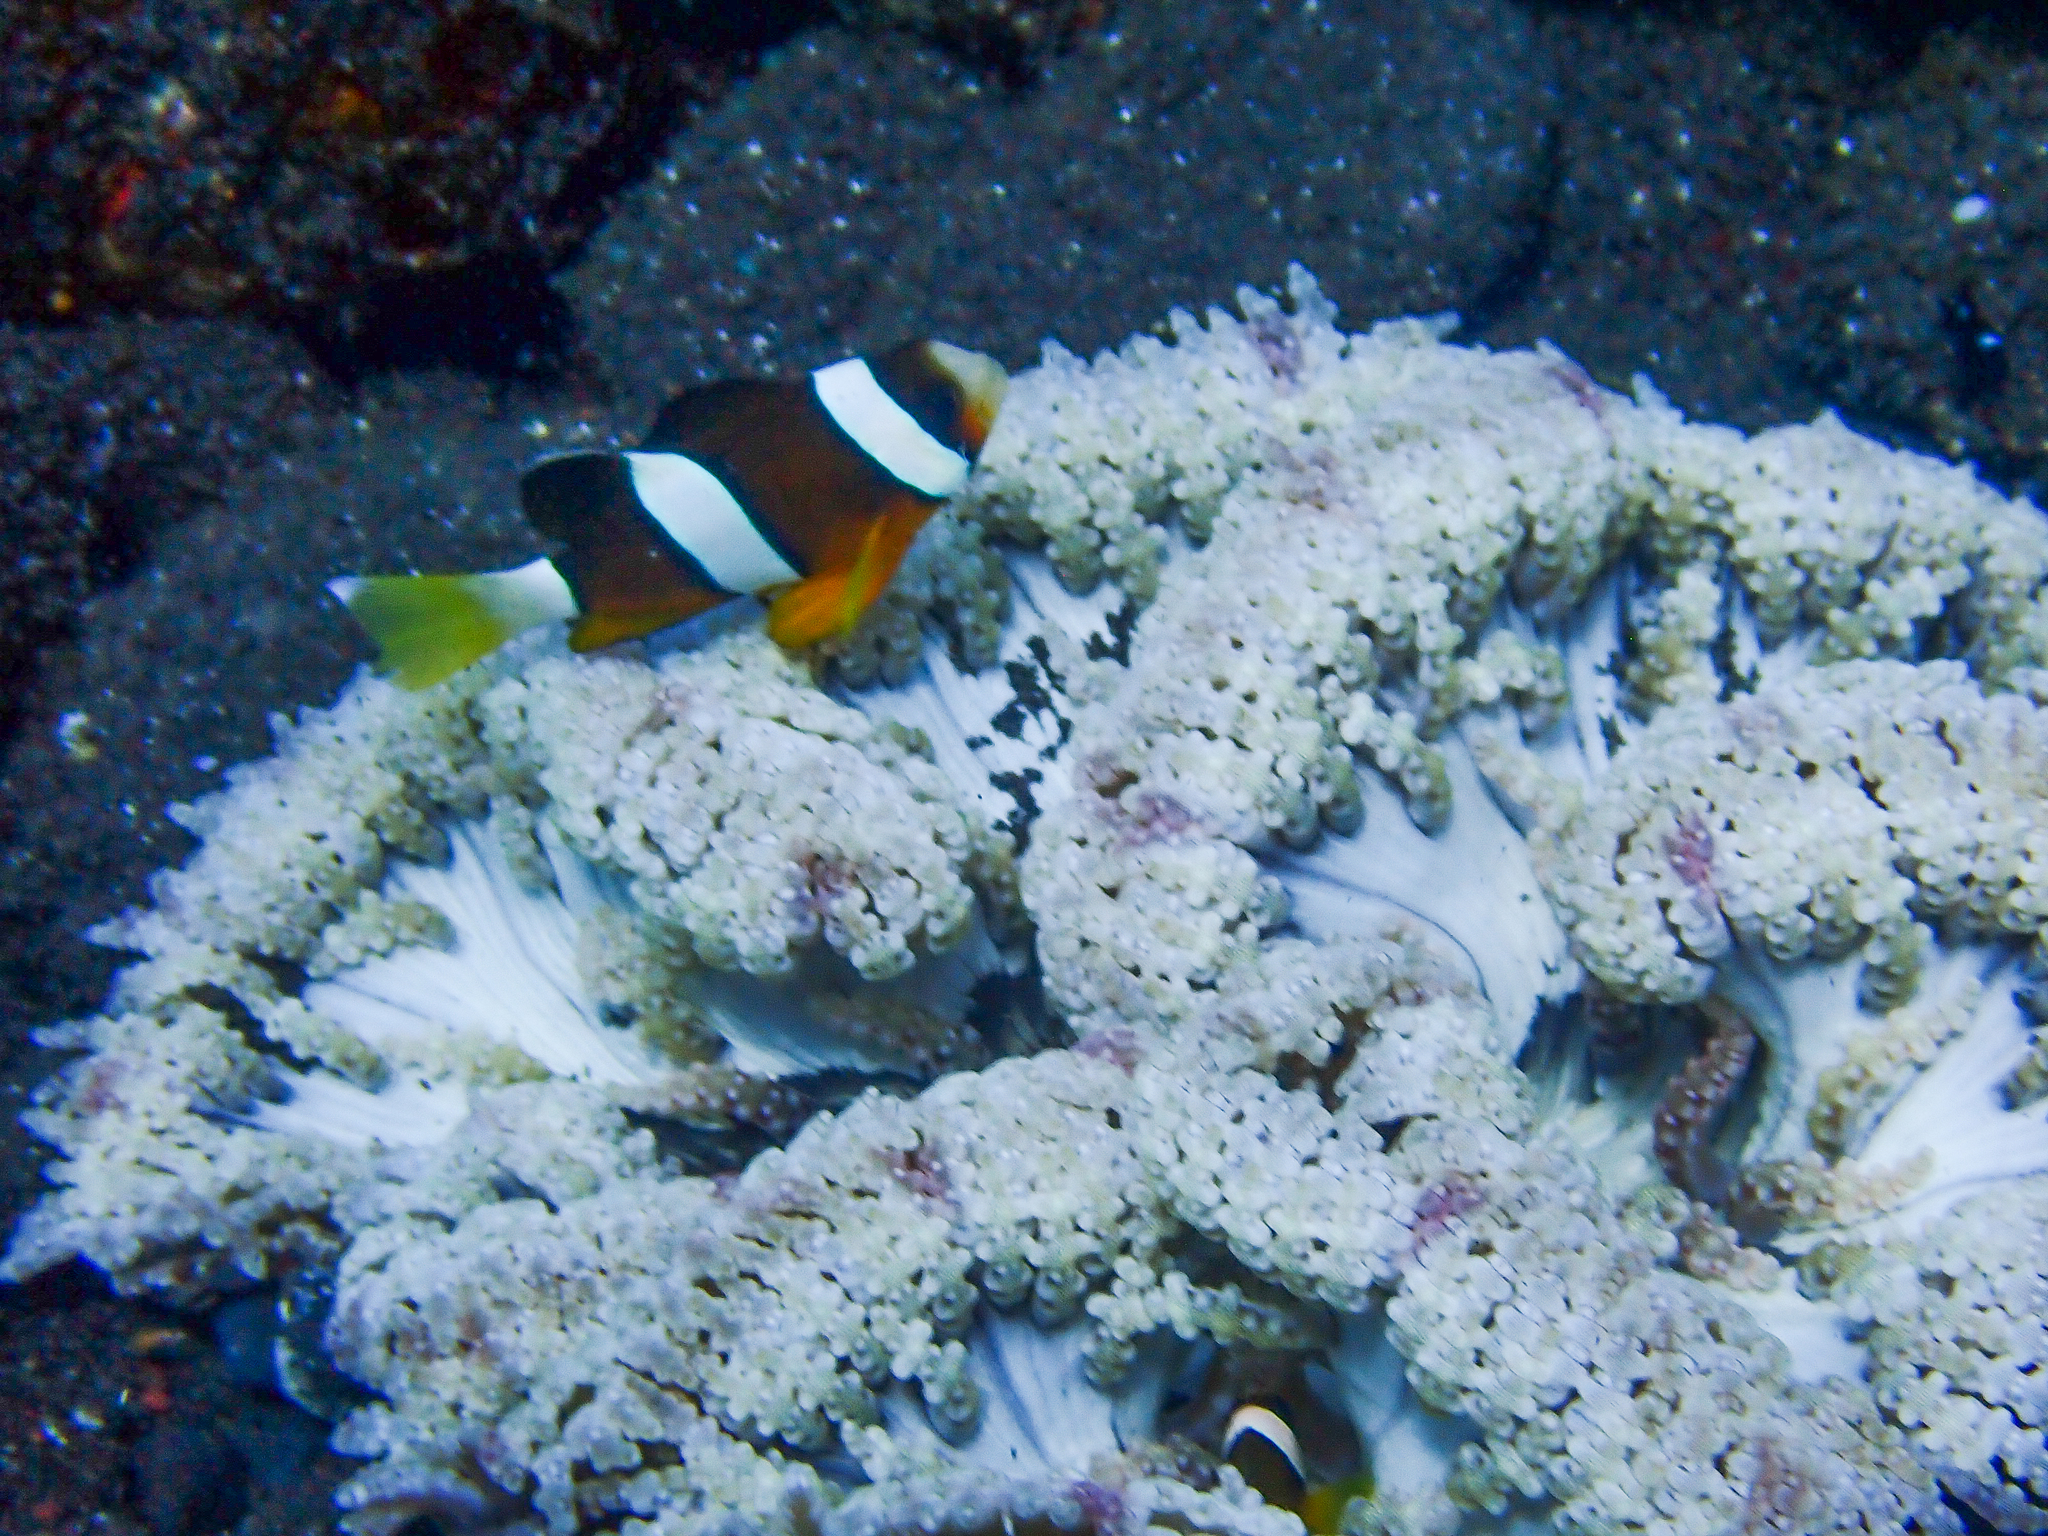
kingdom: Animalia
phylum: Chordata
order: Perciformes
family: Pomacentridae
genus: Amphiprion
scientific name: Amphiprion clarkii
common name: Clark's anemonefish
